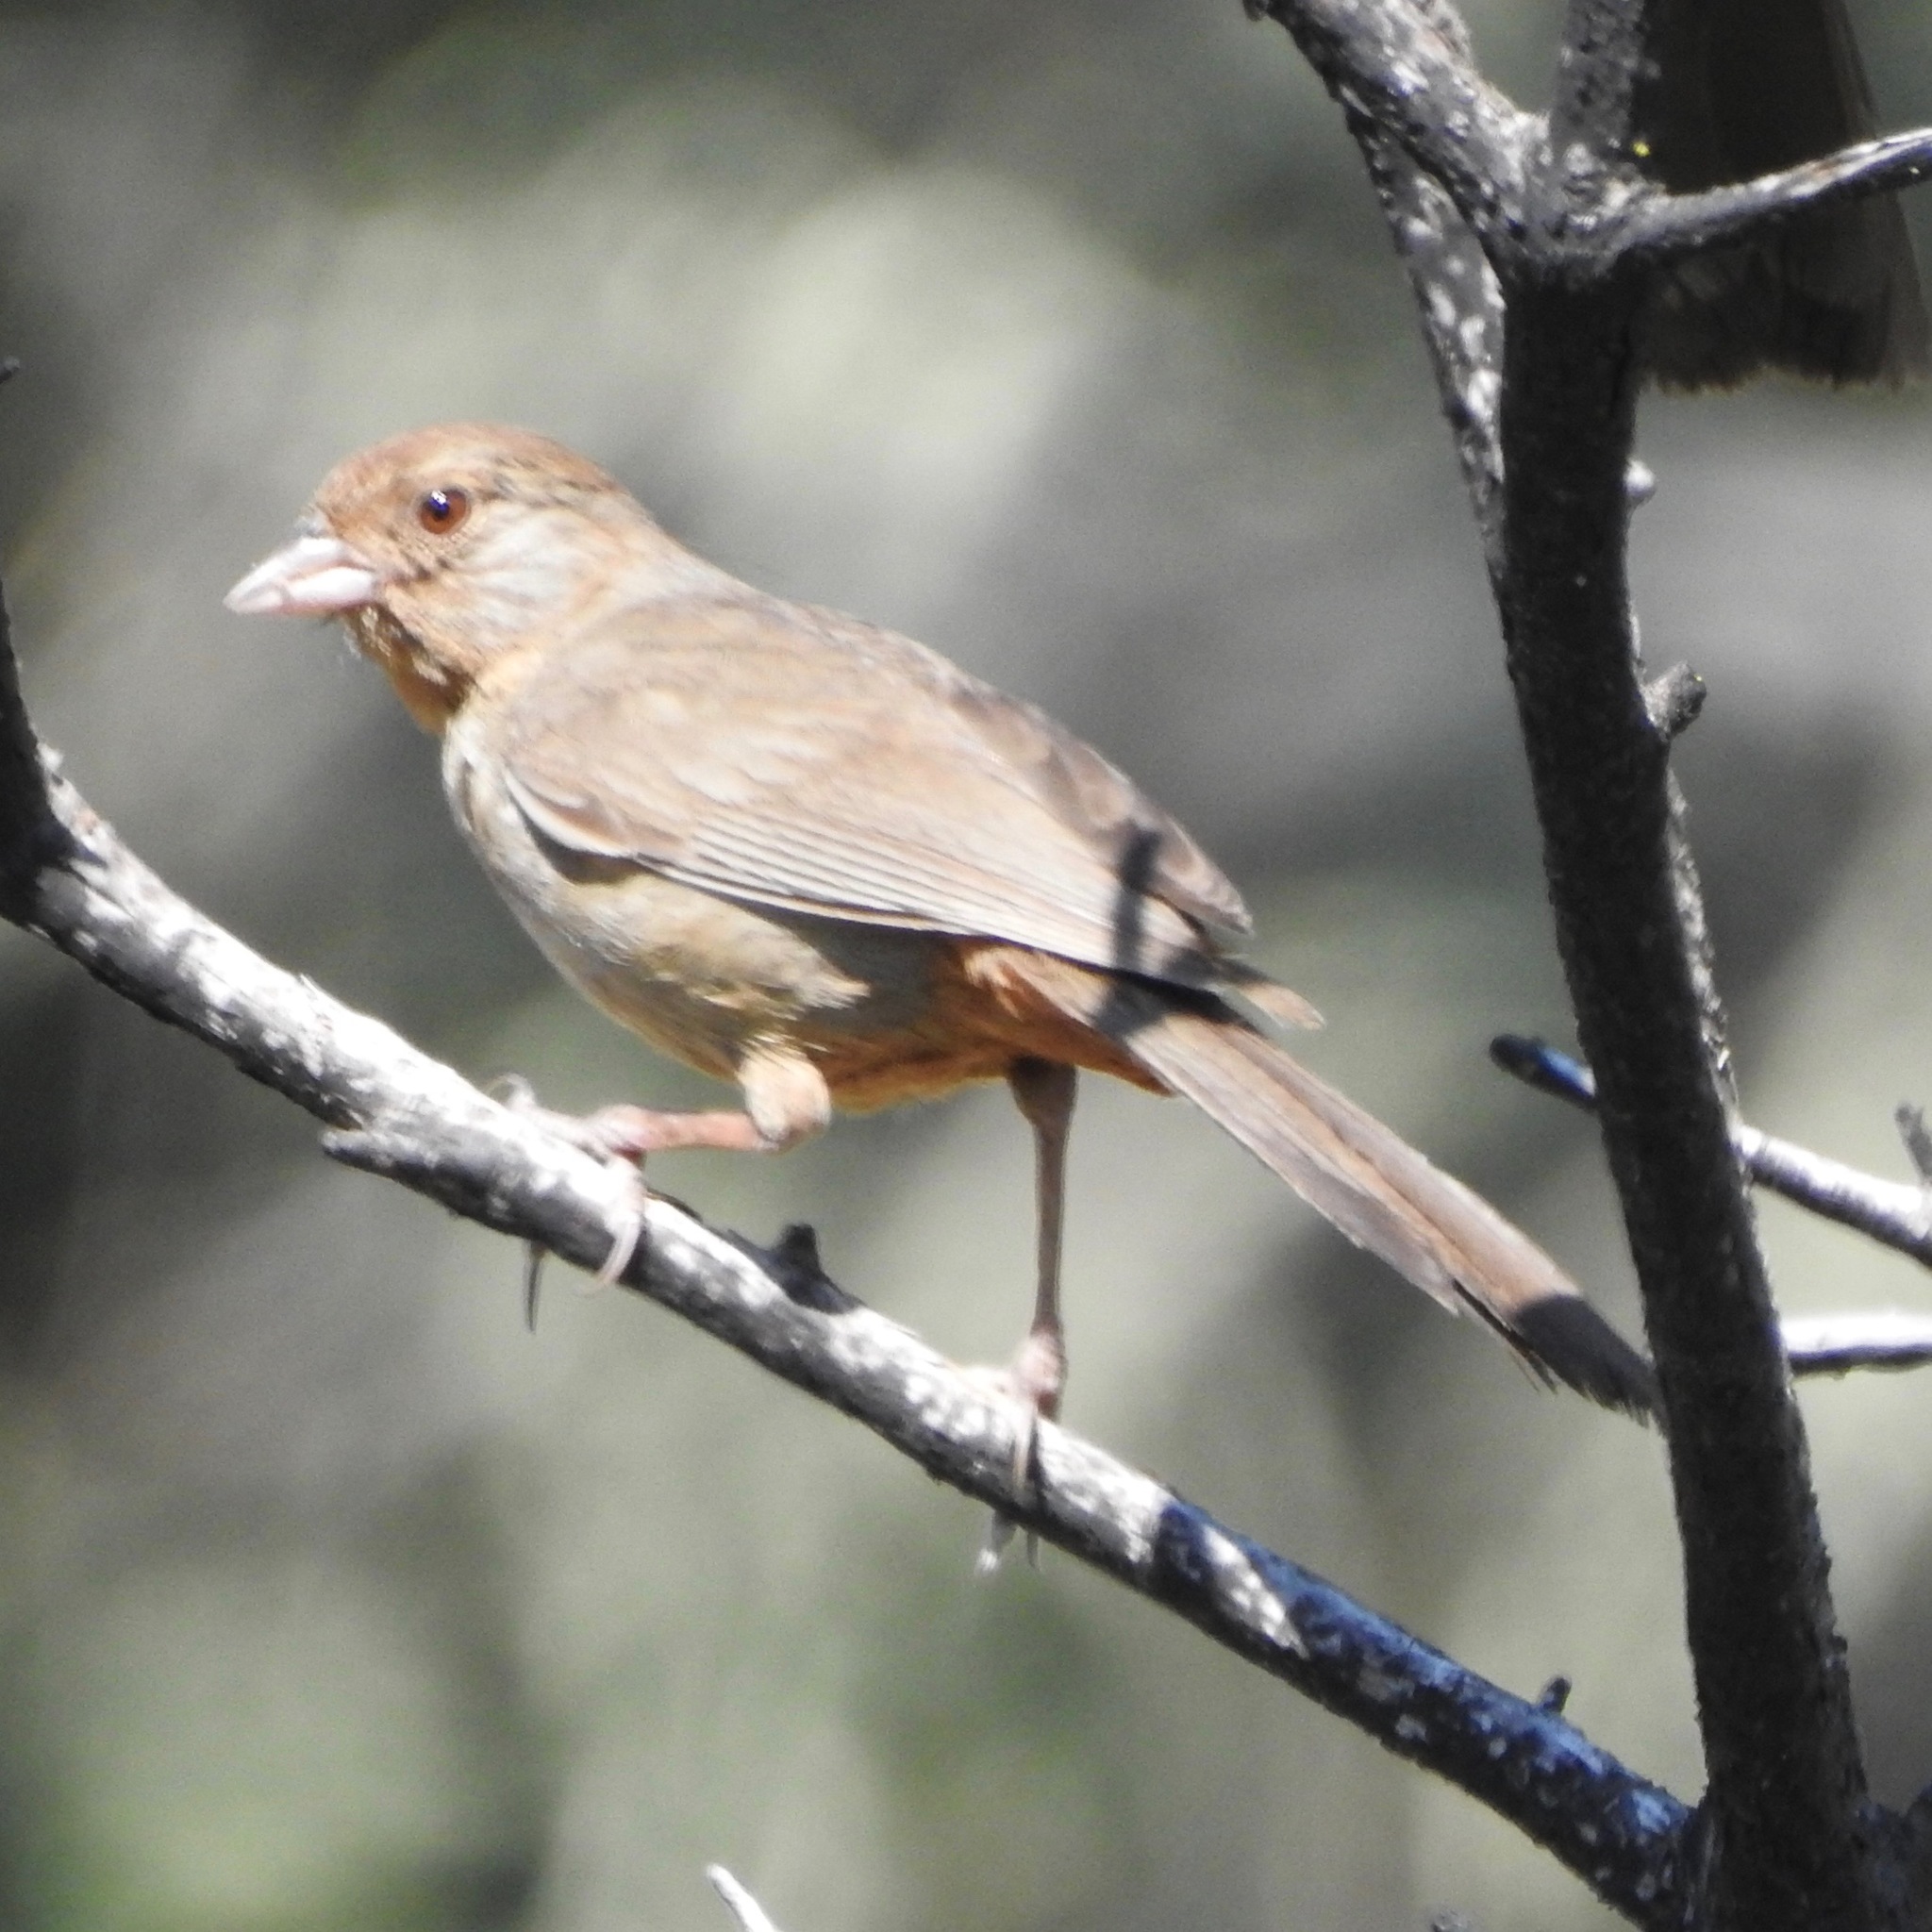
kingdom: Animalia
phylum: Chordata
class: Aves
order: Passeriformes
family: Passerellidae
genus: Melozone
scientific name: Melozone crissalis
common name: California towhee
